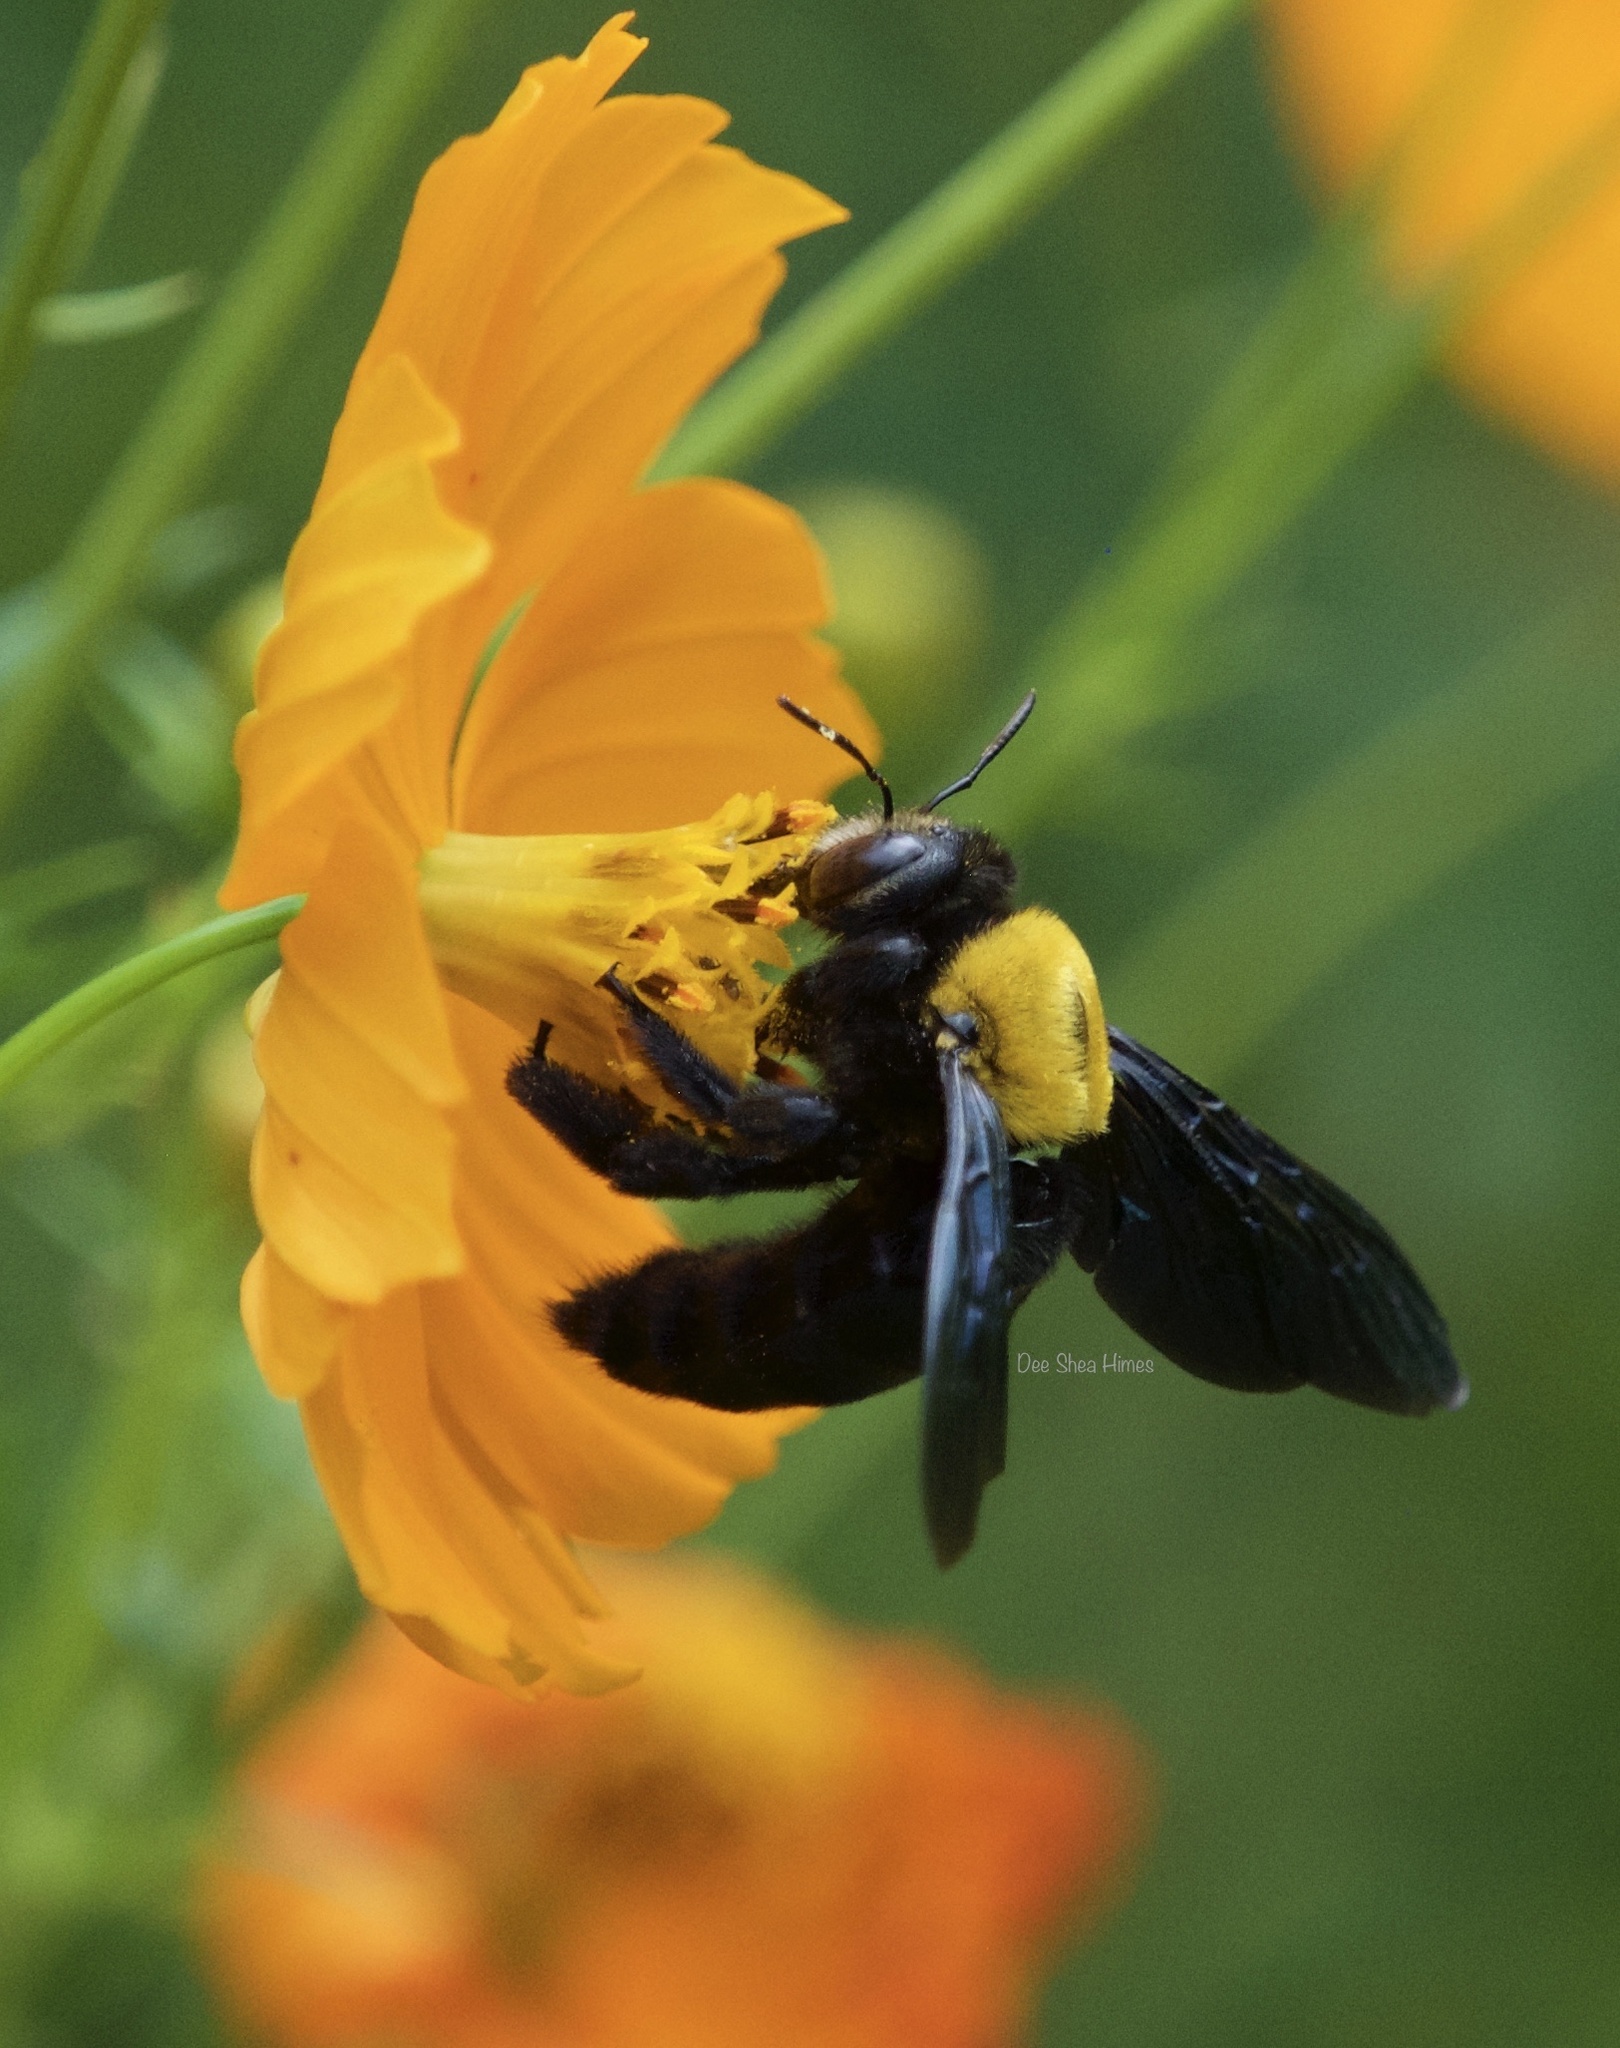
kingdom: Animalia
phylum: Arthropoda
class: Insecta
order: Hymenoptera
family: Apidae
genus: Xylocopa
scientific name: Xylocopa aestuans
